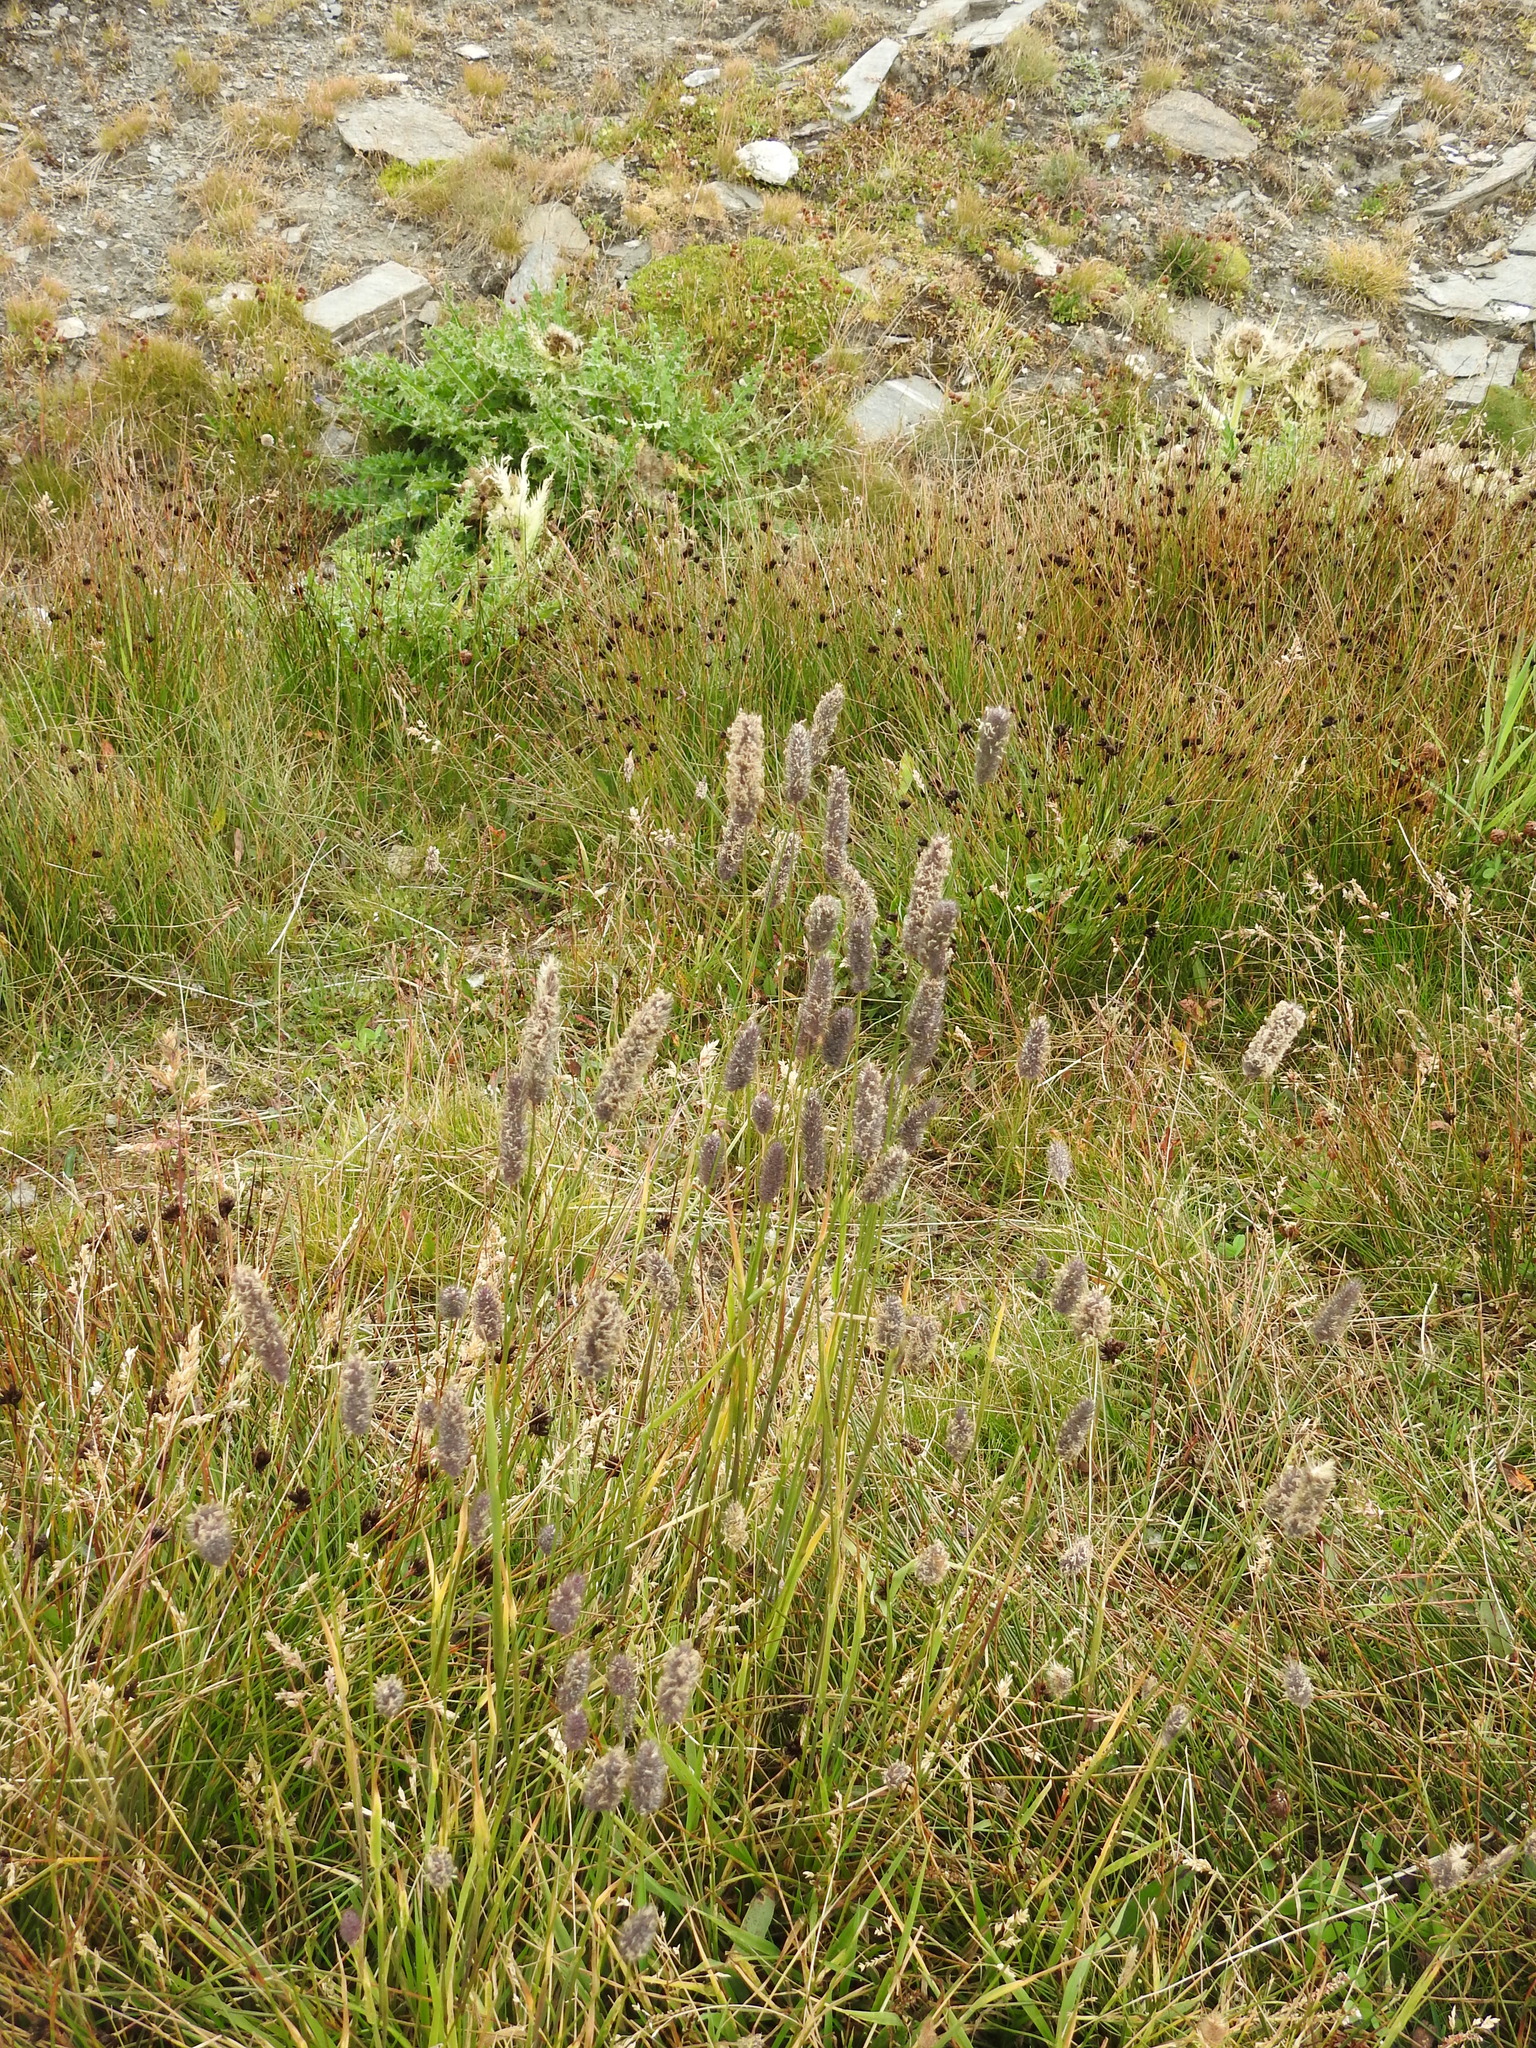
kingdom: Plantae
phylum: Tracheophyta
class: Liliopsida
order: Poales
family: Poaceae
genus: Phleum
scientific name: Phleum alpinum
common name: Alpine cat's-tail
